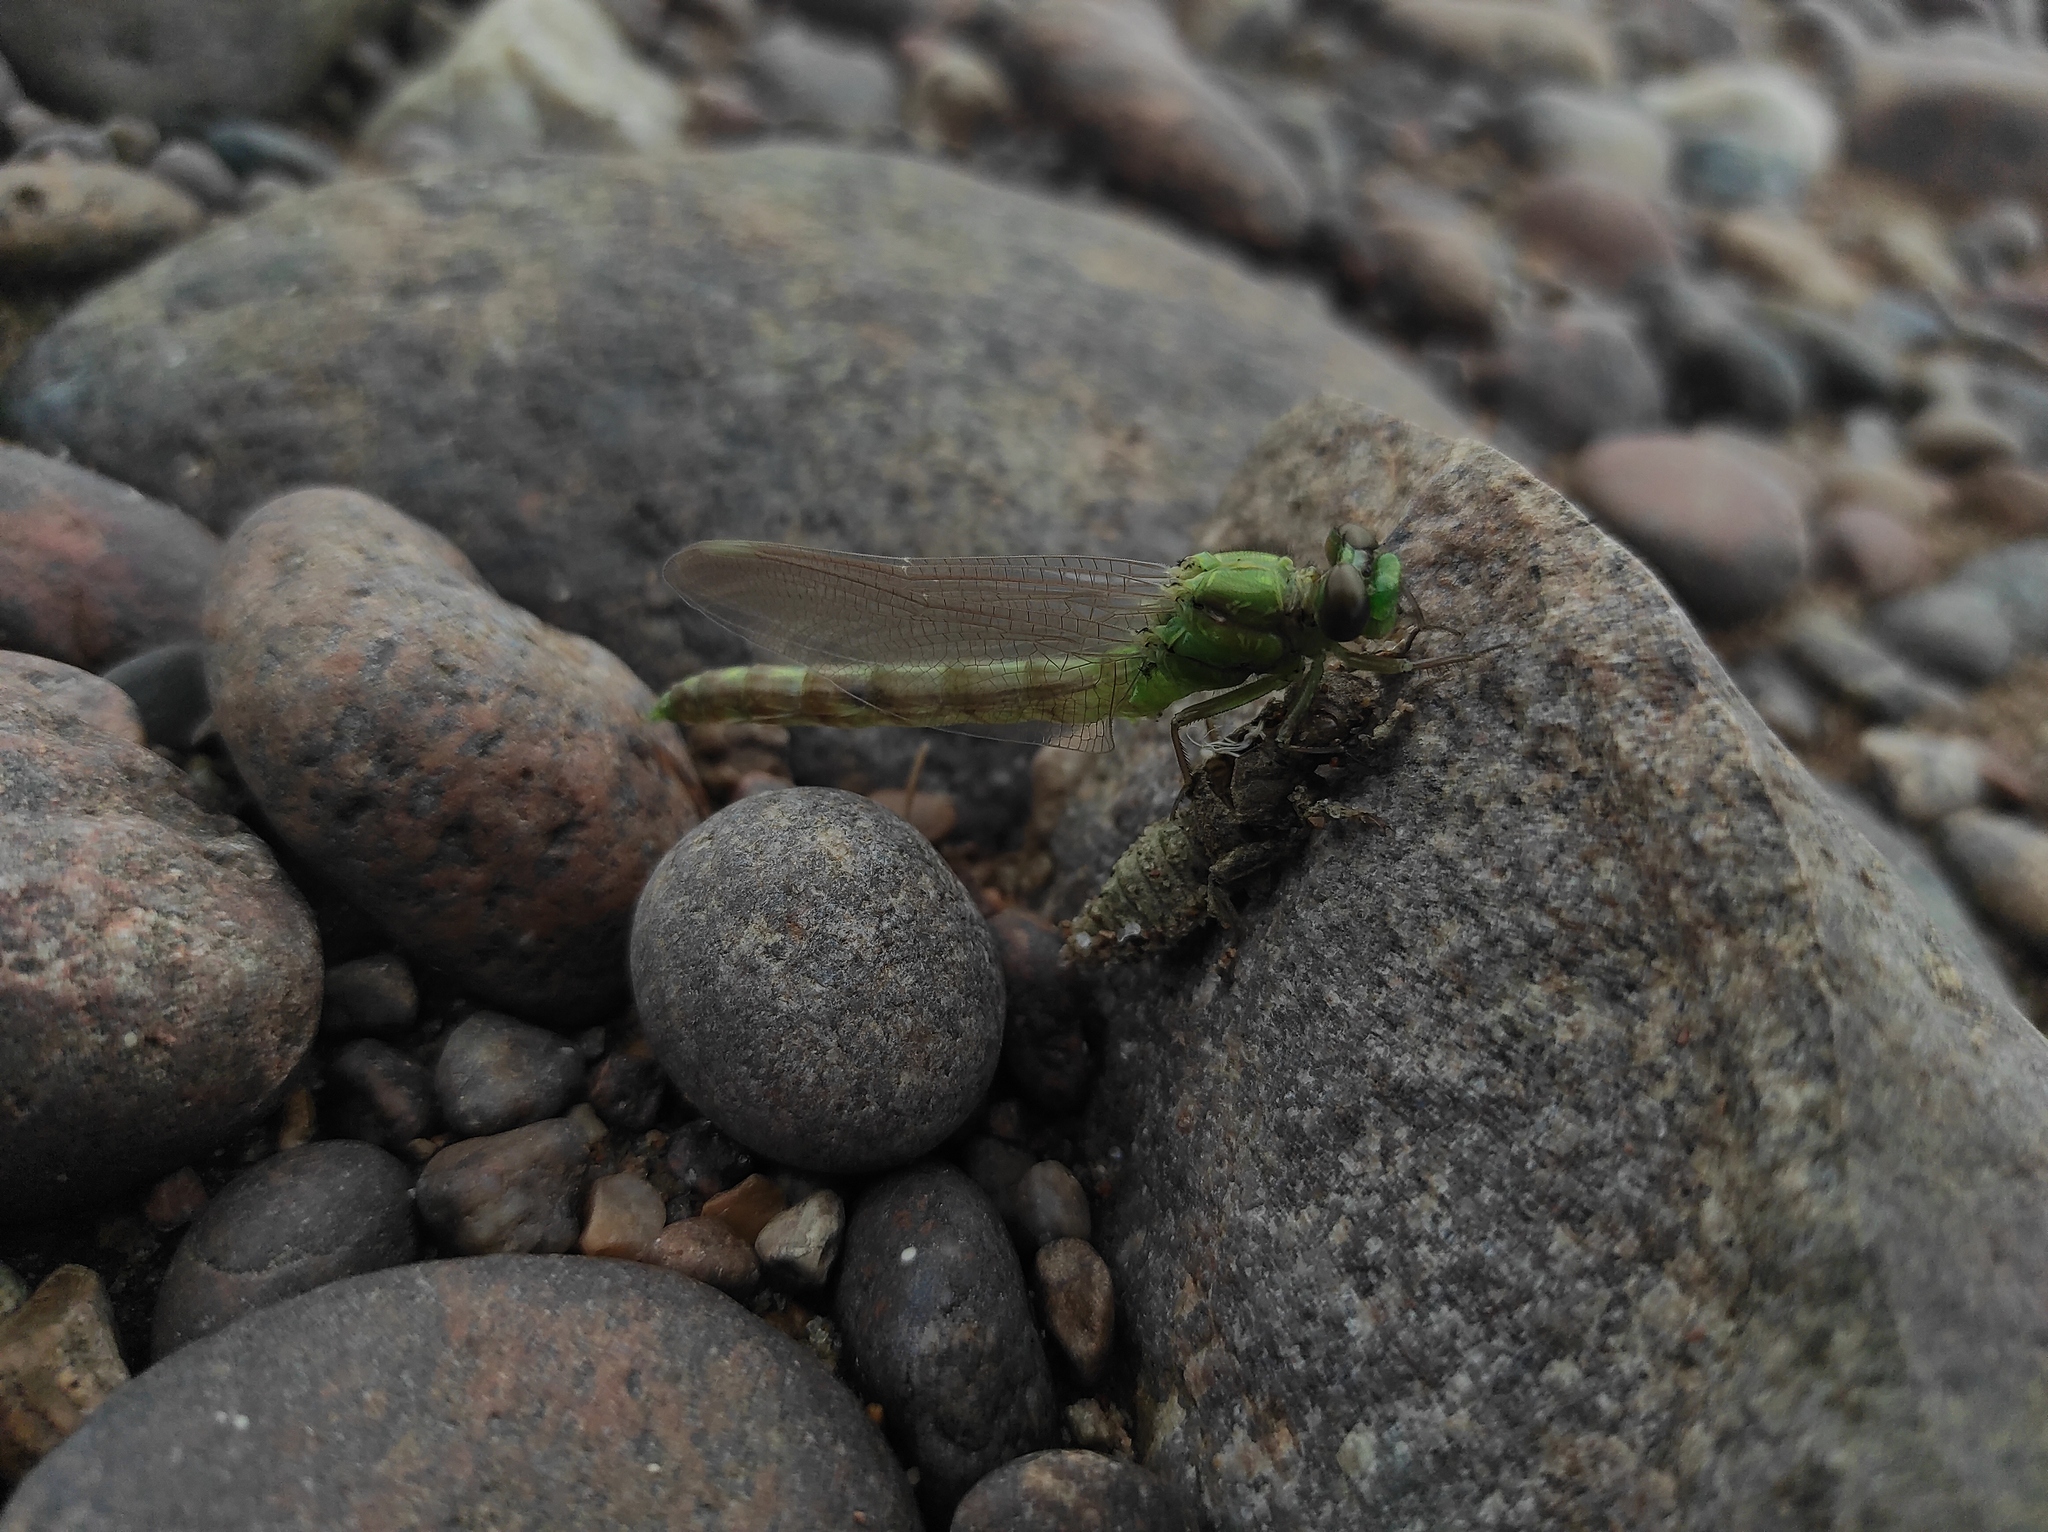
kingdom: Animalia
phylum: Arthropoda
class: Insecta
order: Odonata
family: Gomphidae
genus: Ophiogomphus
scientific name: Ophiogomphus obscurus
